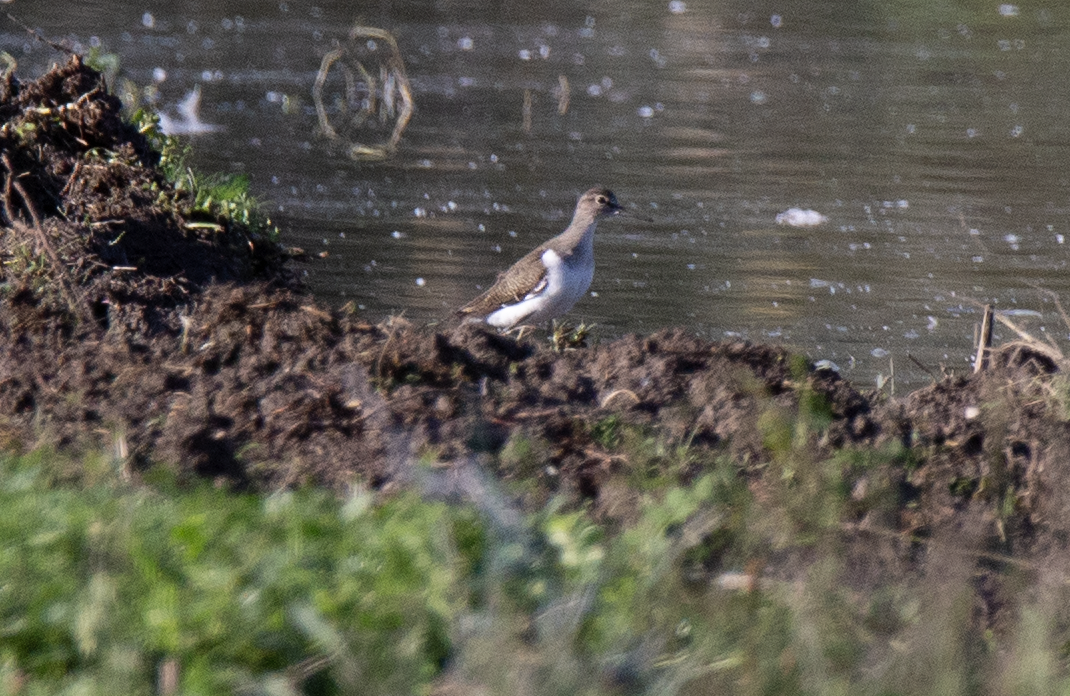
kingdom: Animalia
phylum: Chordata
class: Aves
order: Charadriiformes
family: Scolopacidae
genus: Actitis
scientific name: Actitis hypoleucos
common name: Common sandpiper
